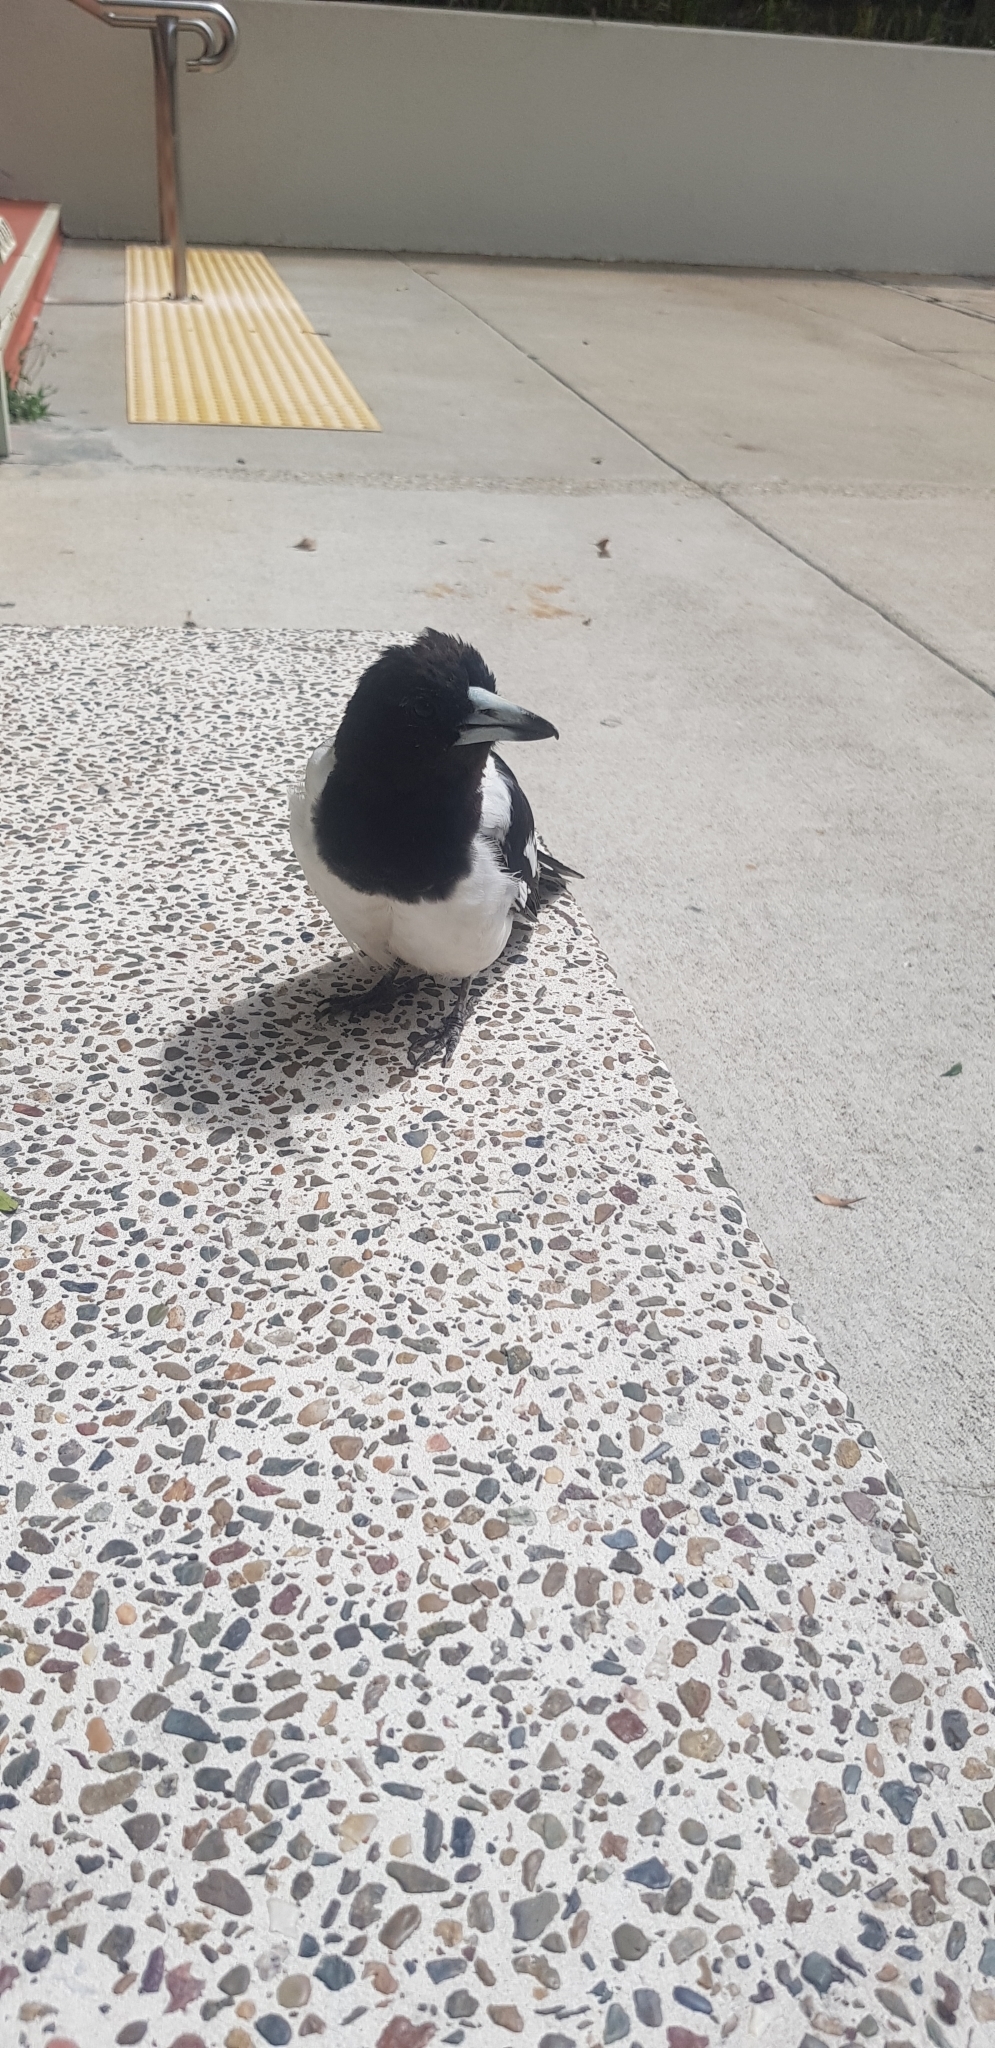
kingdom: Animalia
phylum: Chordata
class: Aves
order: Passeriformes
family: Cracticidae
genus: Cracticus
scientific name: Cracticus nigrogularis
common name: Pied butcherbird
